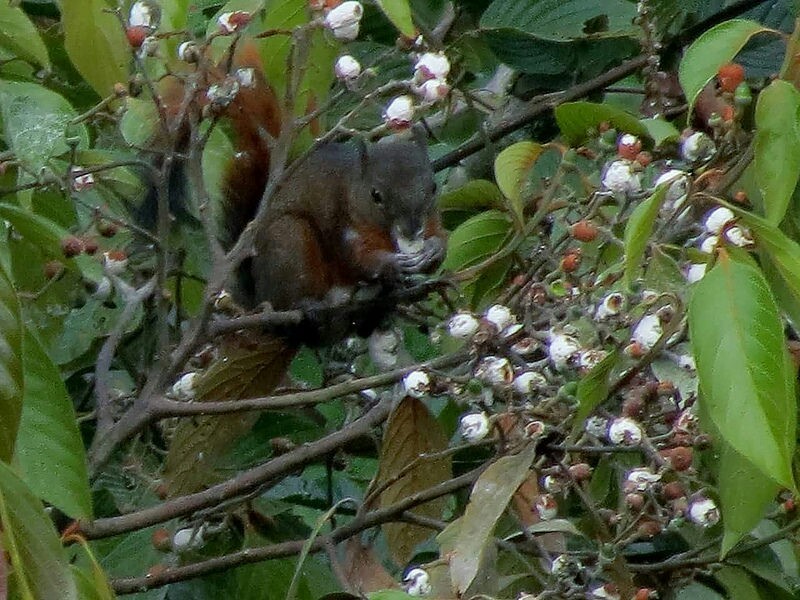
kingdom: Animalia
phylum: Chordata
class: Mammalia
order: Rodentia
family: Sciuridae
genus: Sciurus
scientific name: Sciurus granatensis
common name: Red-tailed squirrel
